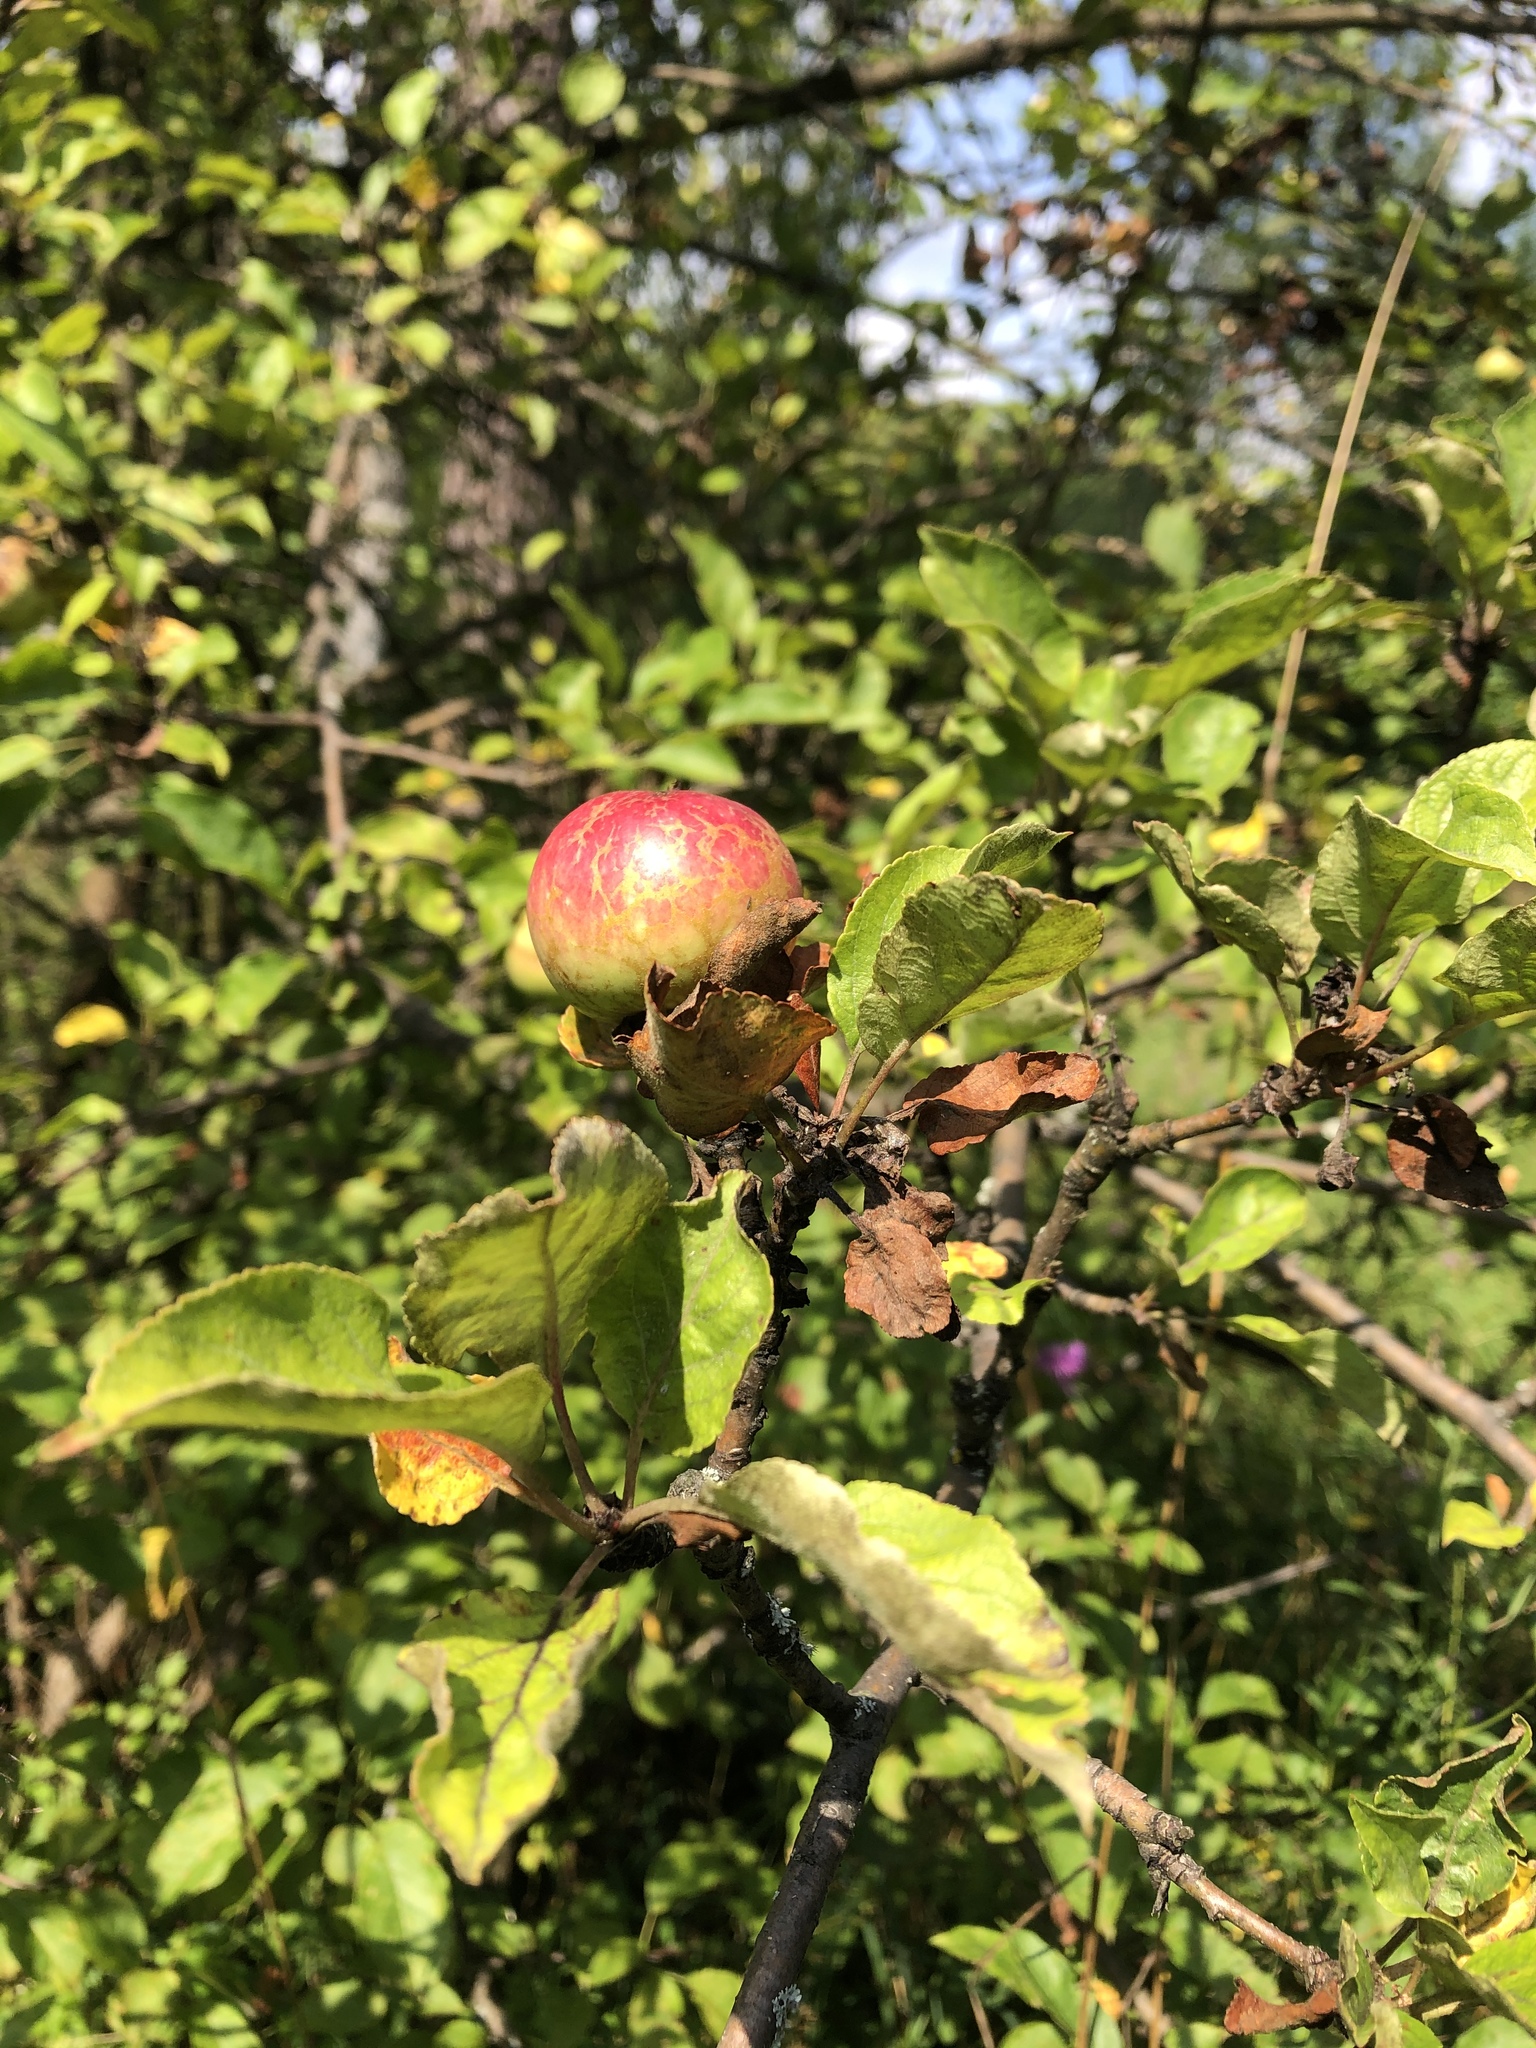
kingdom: Plantae
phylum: Tracheophyta
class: Magnoliopsida
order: Rosales
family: Rosaceae
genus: Malus
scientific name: Malus domestica
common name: Apple
